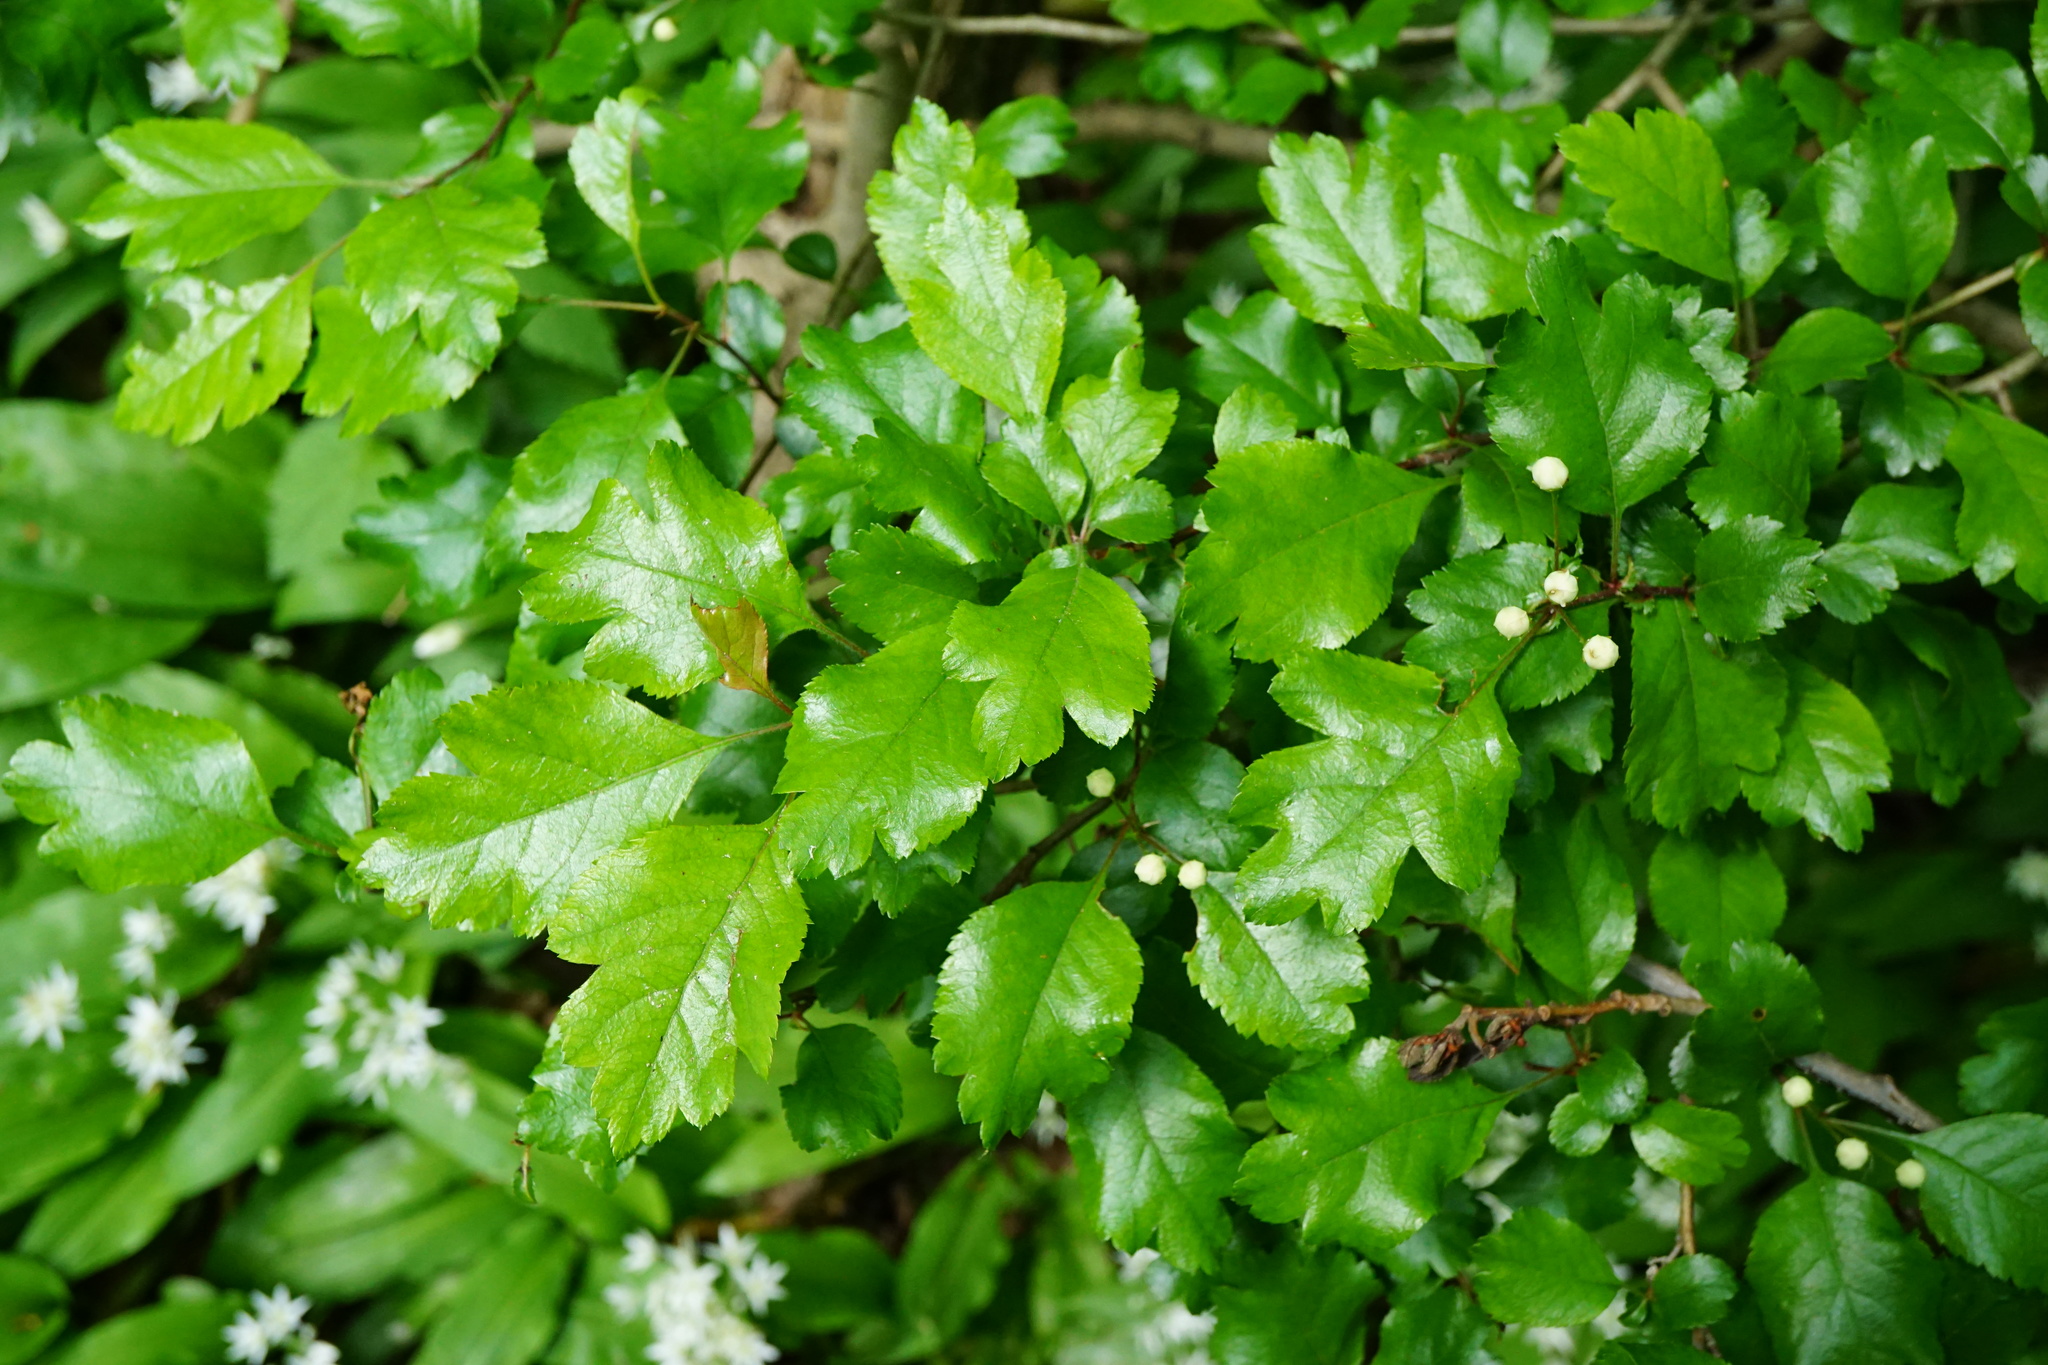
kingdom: Plantae
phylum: Tracheophyta
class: Magnoliopsida
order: Rosales
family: Rosaceae
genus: Crataegus
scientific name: Crataegus laevigata
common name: Midland hawthorn
